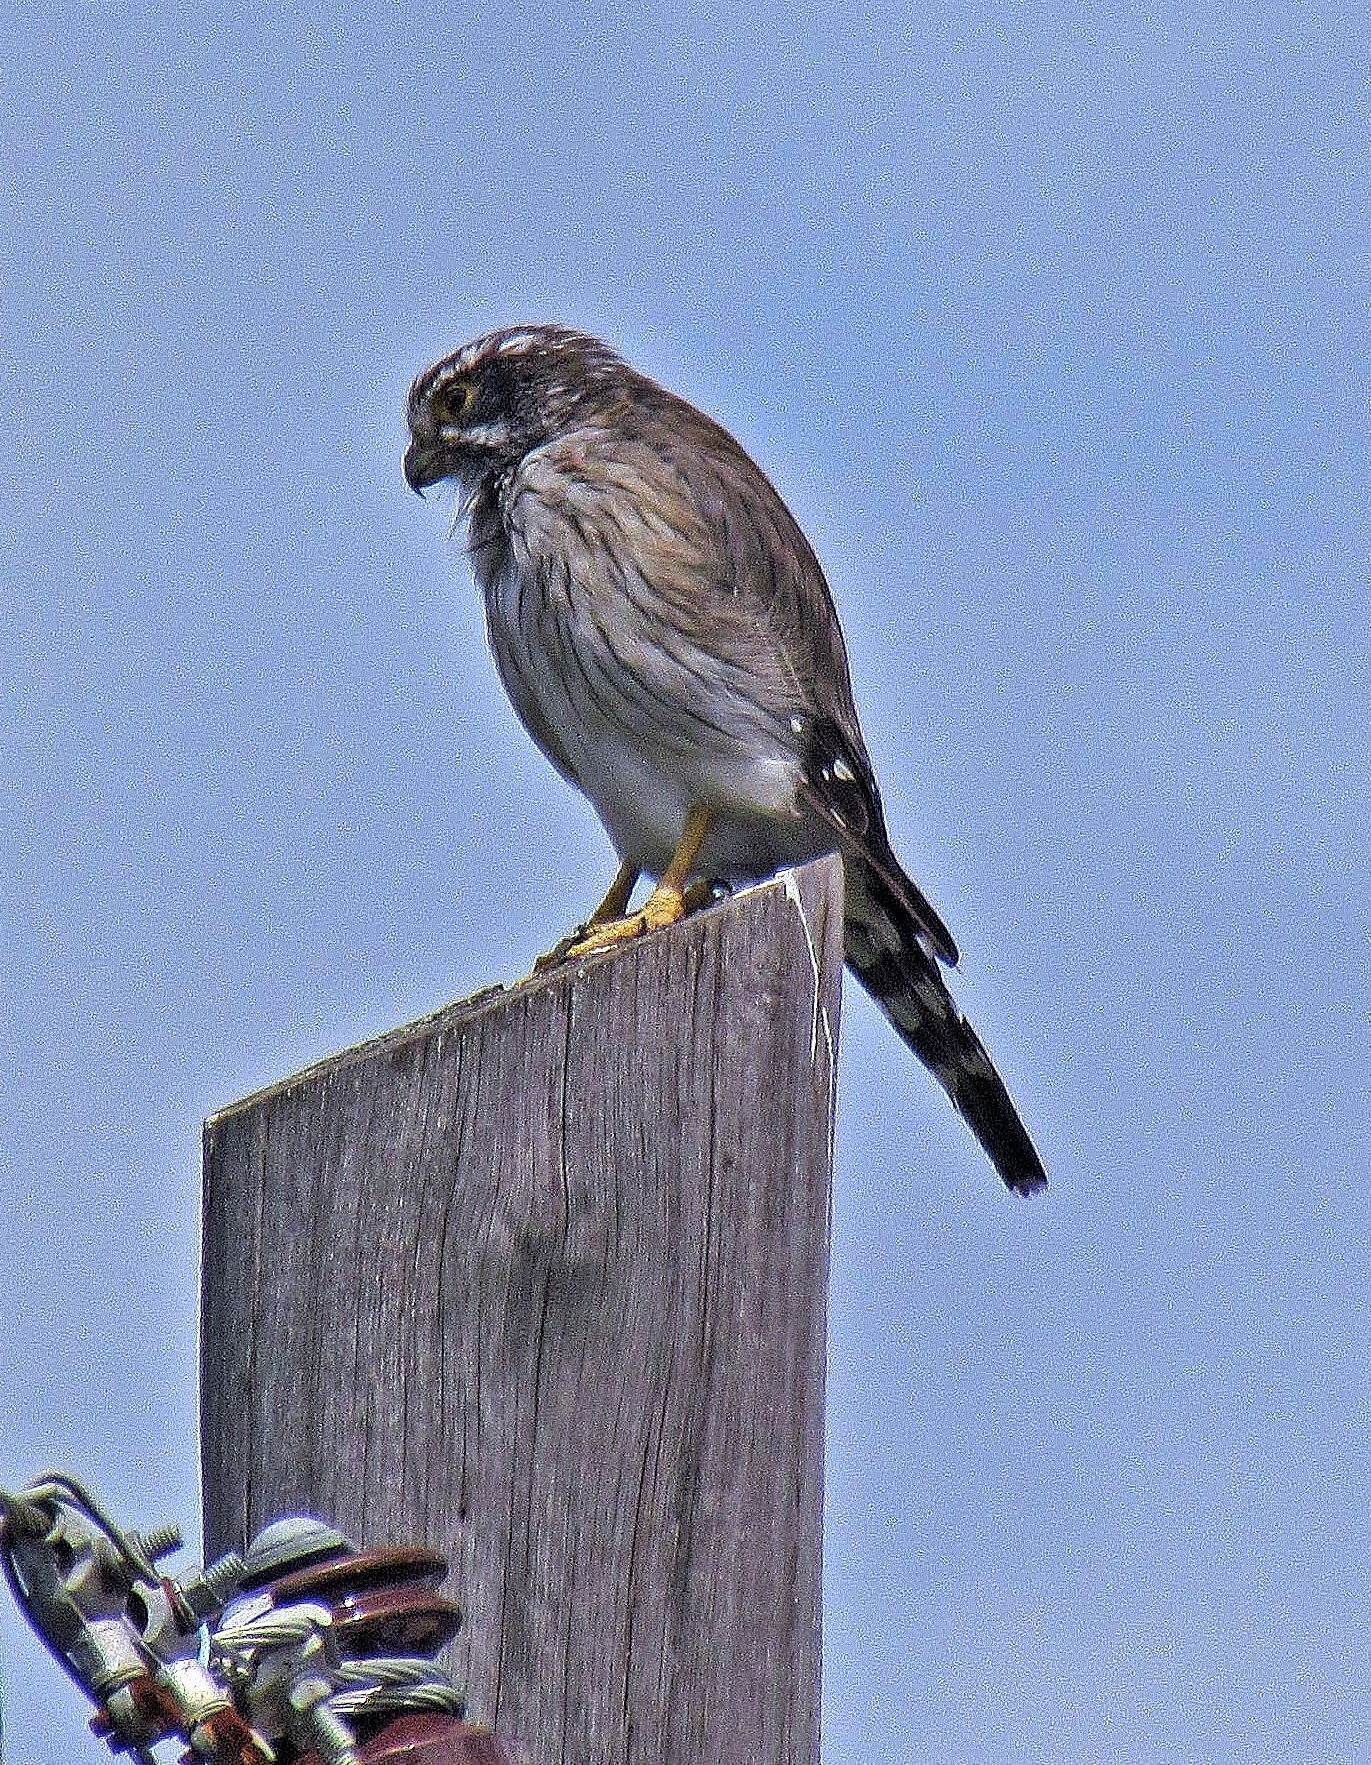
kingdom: Animalia
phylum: Chordata
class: Aves
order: Falconiformes
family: Falconidae
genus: Spiziapteryx
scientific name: Spiziapteryx circumcincta
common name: Spot-winged falconet
